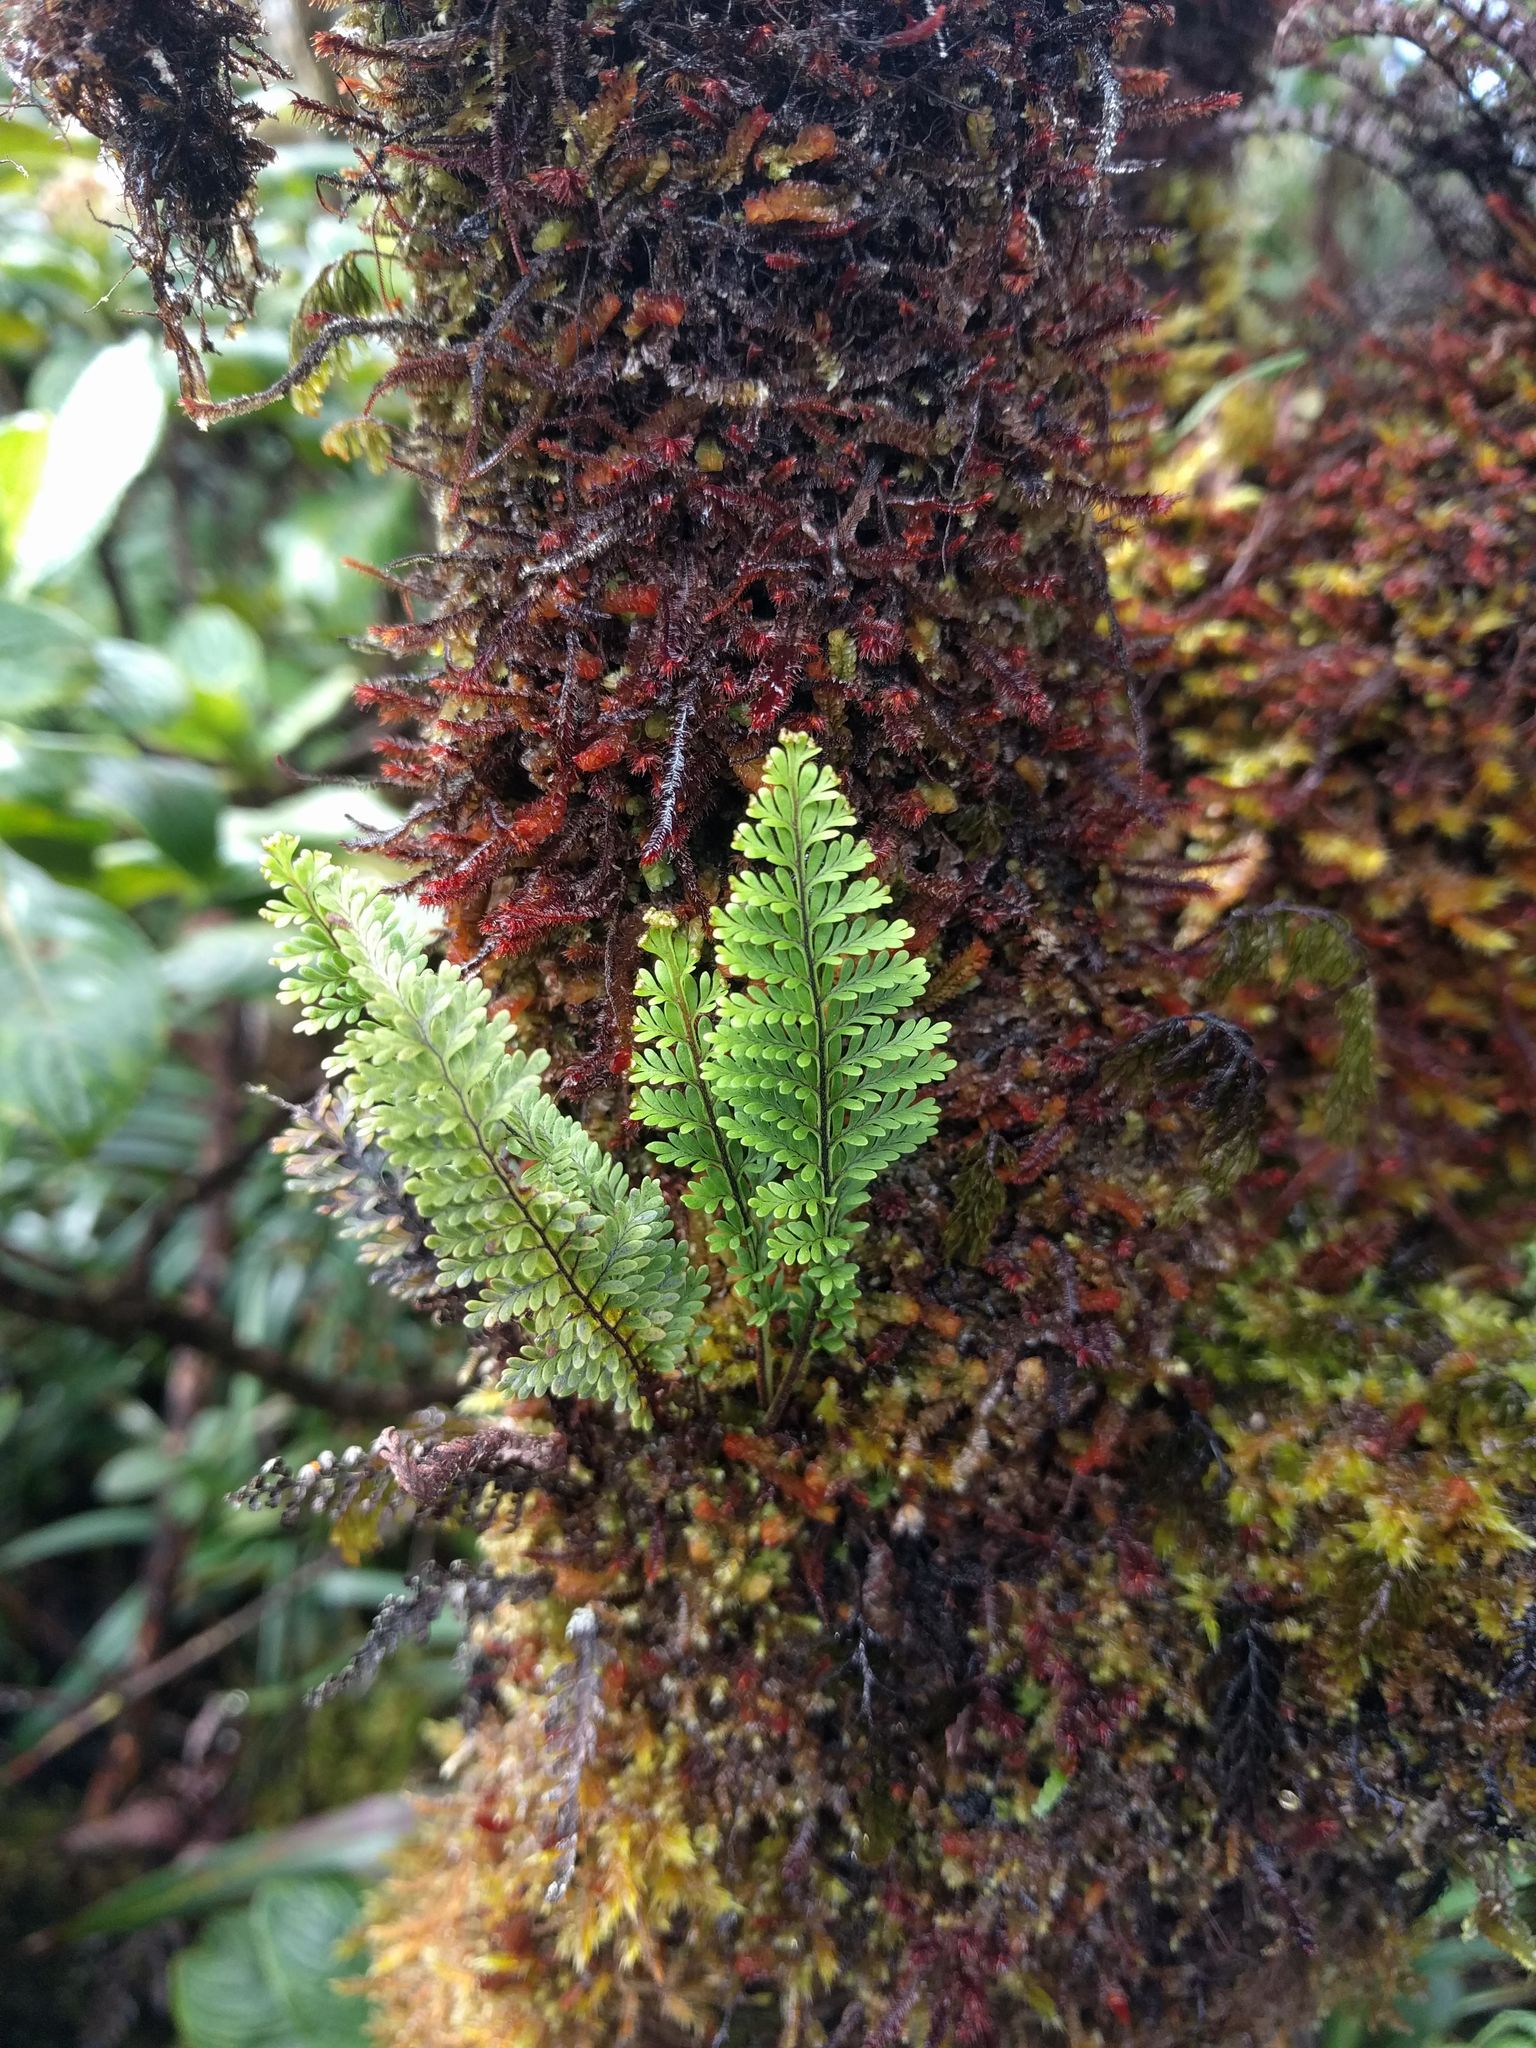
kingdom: Plantae
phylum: Tracheophyta
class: Polypodiopsida
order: Polypodiales
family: Polypodiaceae
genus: Adenophorus
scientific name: Adenophorus tamariscinus
